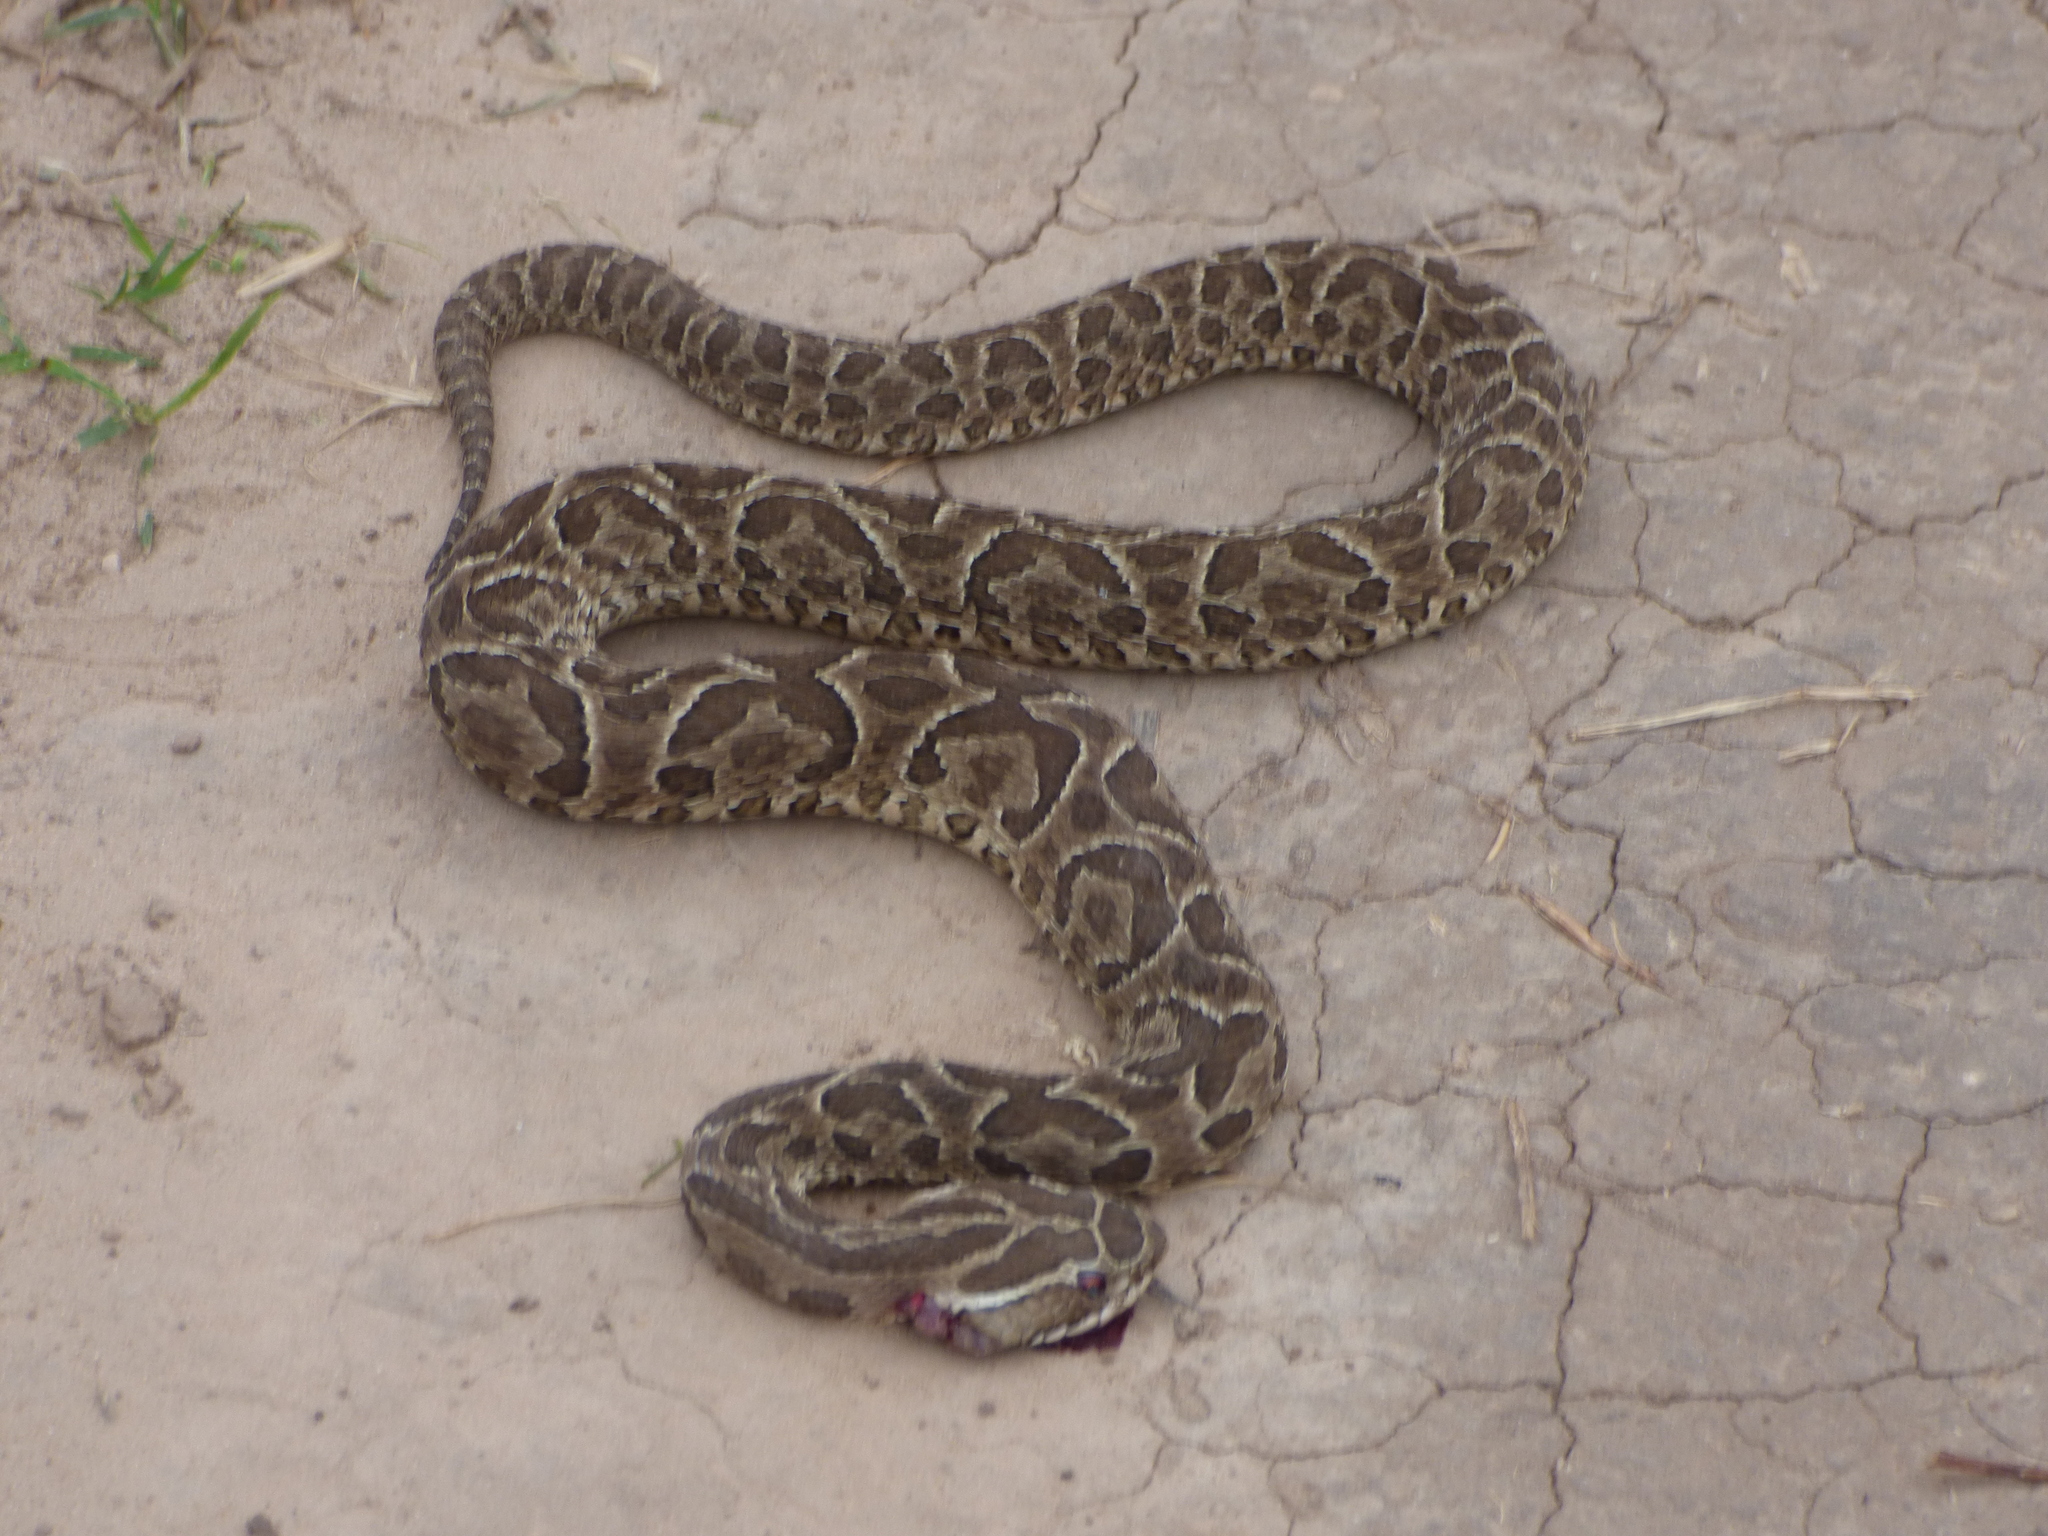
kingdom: Animalia
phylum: Chordata
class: Squamata
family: Viperidae
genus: Bothrops
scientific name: Bothrops alternatus
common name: Urutu
